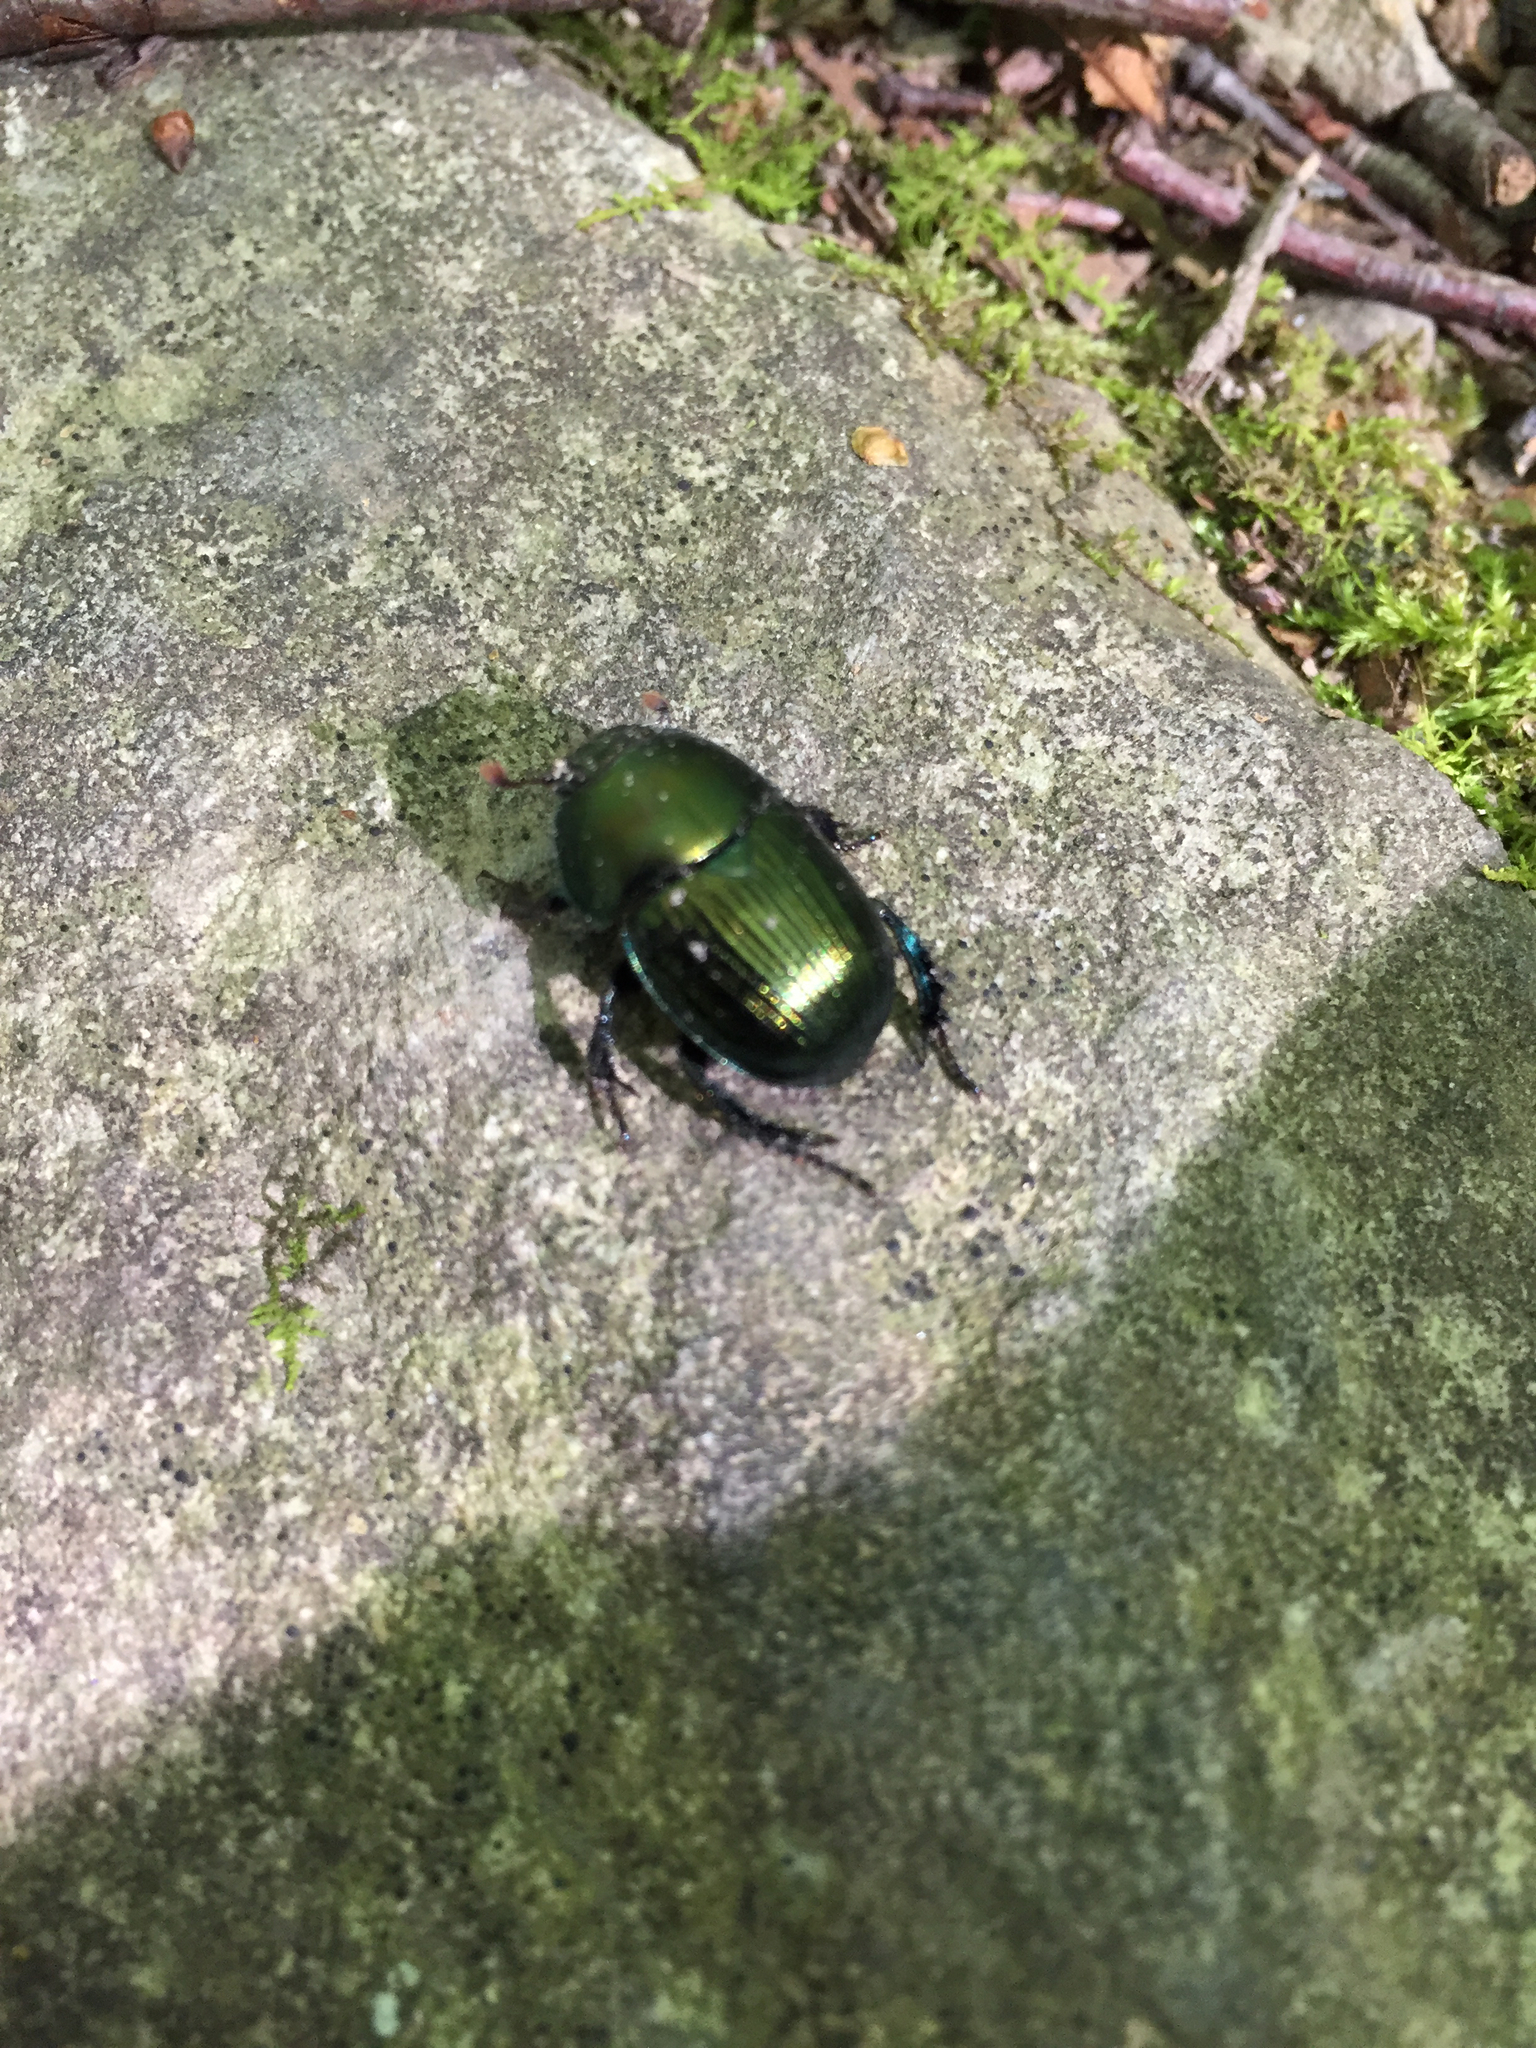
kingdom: Animalia
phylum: Arthropoda
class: Insecta
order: Coleoptera
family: Geotrupidae
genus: Geotrupes
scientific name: Geotrupes splendidus
